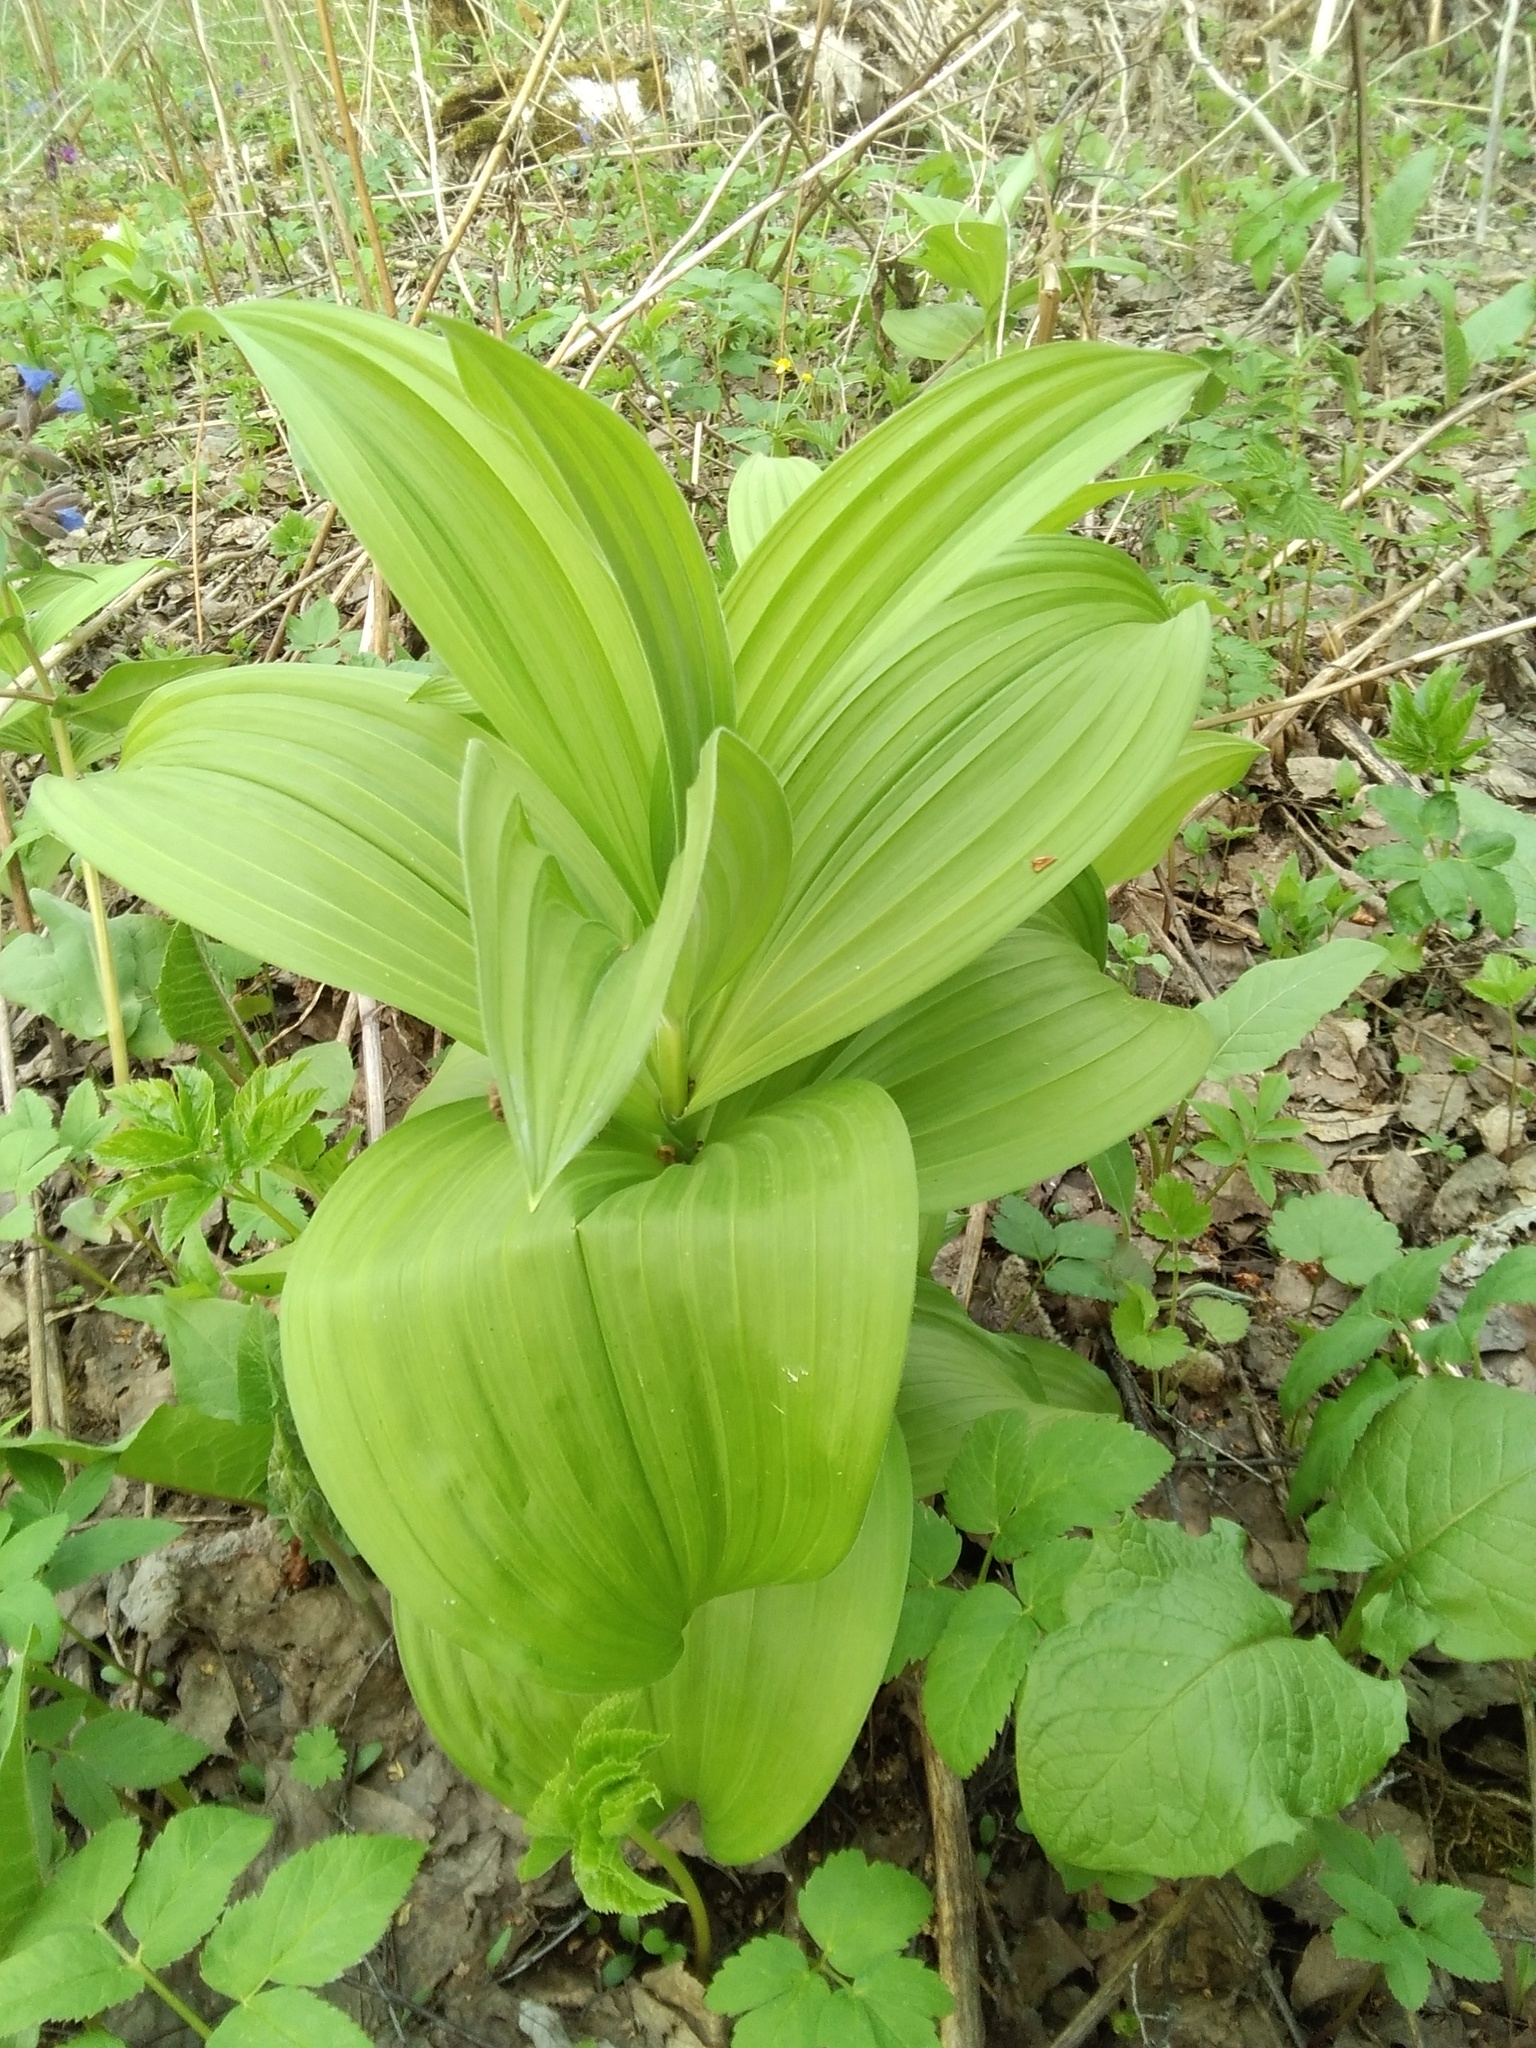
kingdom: Plantae
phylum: Tracheophyta
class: Liliopsida
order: Liliales
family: Melanthiaceae
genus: Veratrum
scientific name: Veratrum lobelianum
